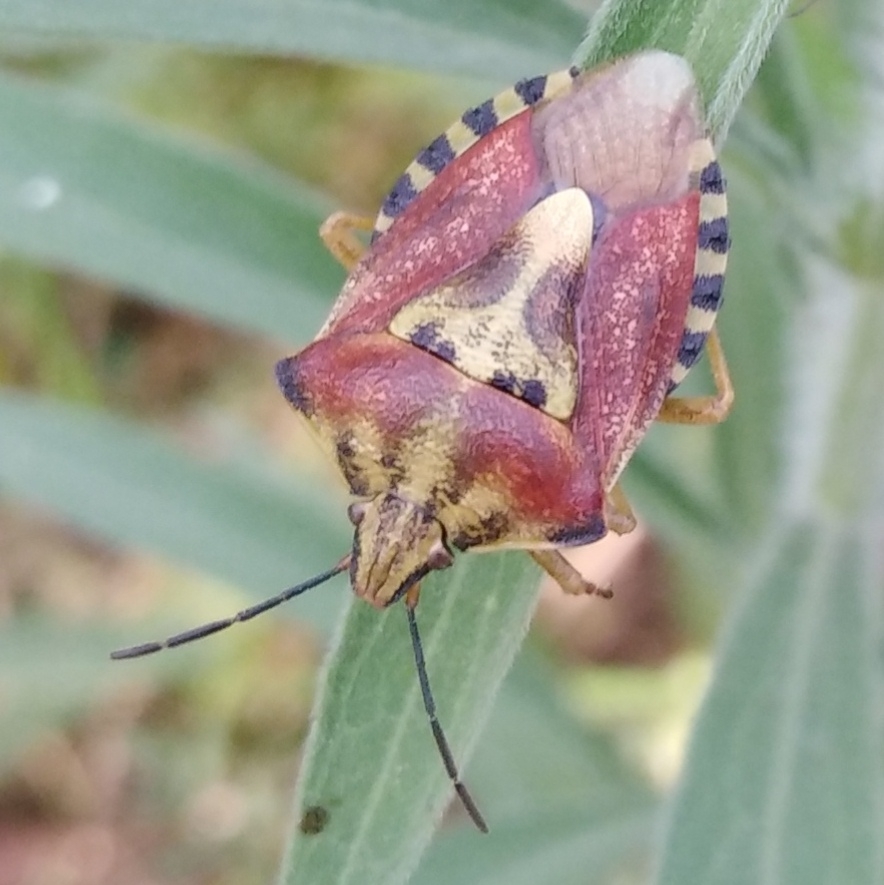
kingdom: Animalia
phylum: Arthropoda
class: Insecta
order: Hemiptera
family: Pentatomidae
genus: Carpocoris
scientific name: Carpocoris purpureipennis
